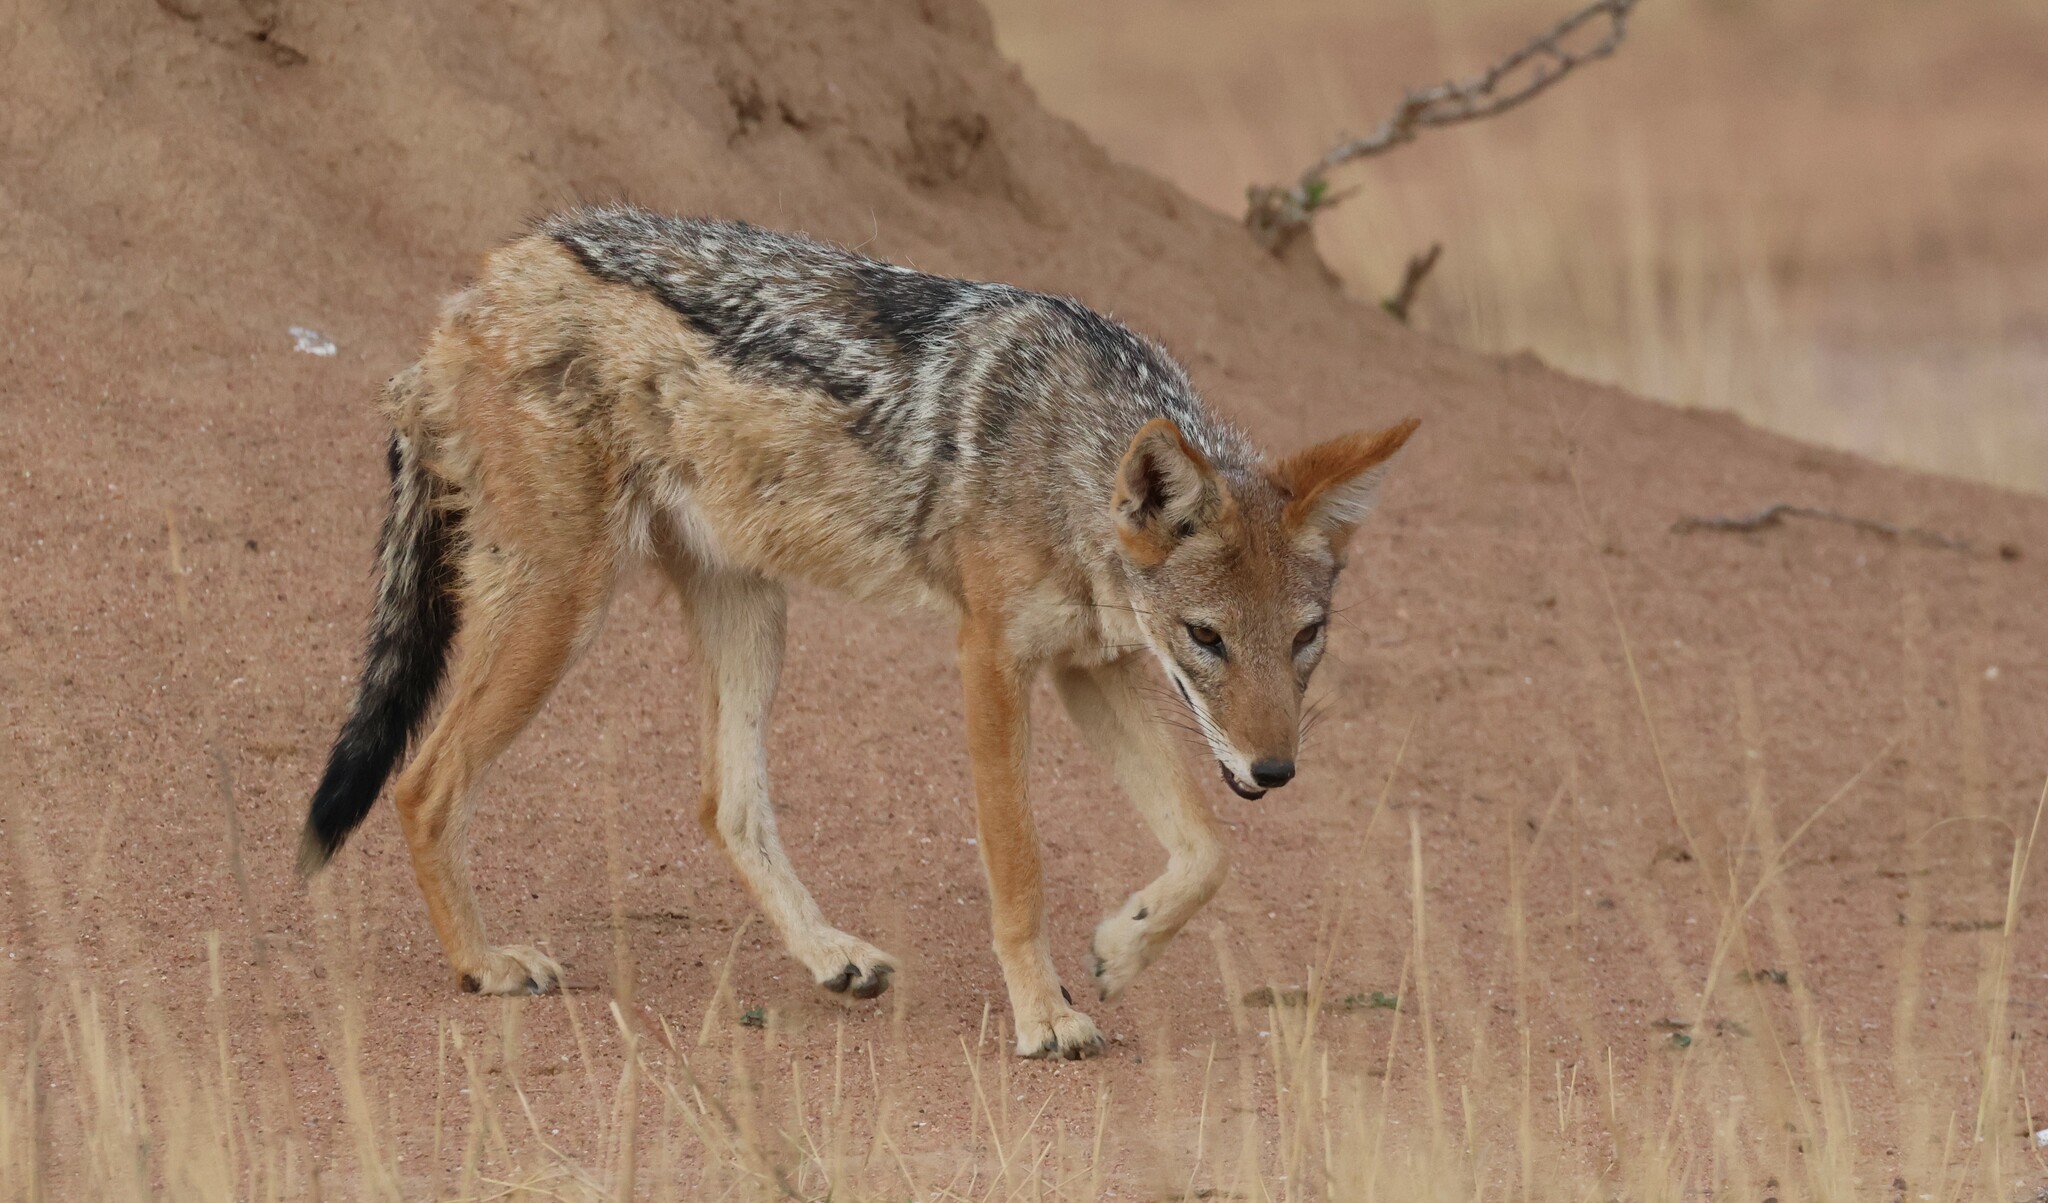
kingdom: Animalia
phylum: Chordata
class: Mammalia
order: Carnivora
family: Canidae
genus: Lupulella
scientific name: Lupulella
